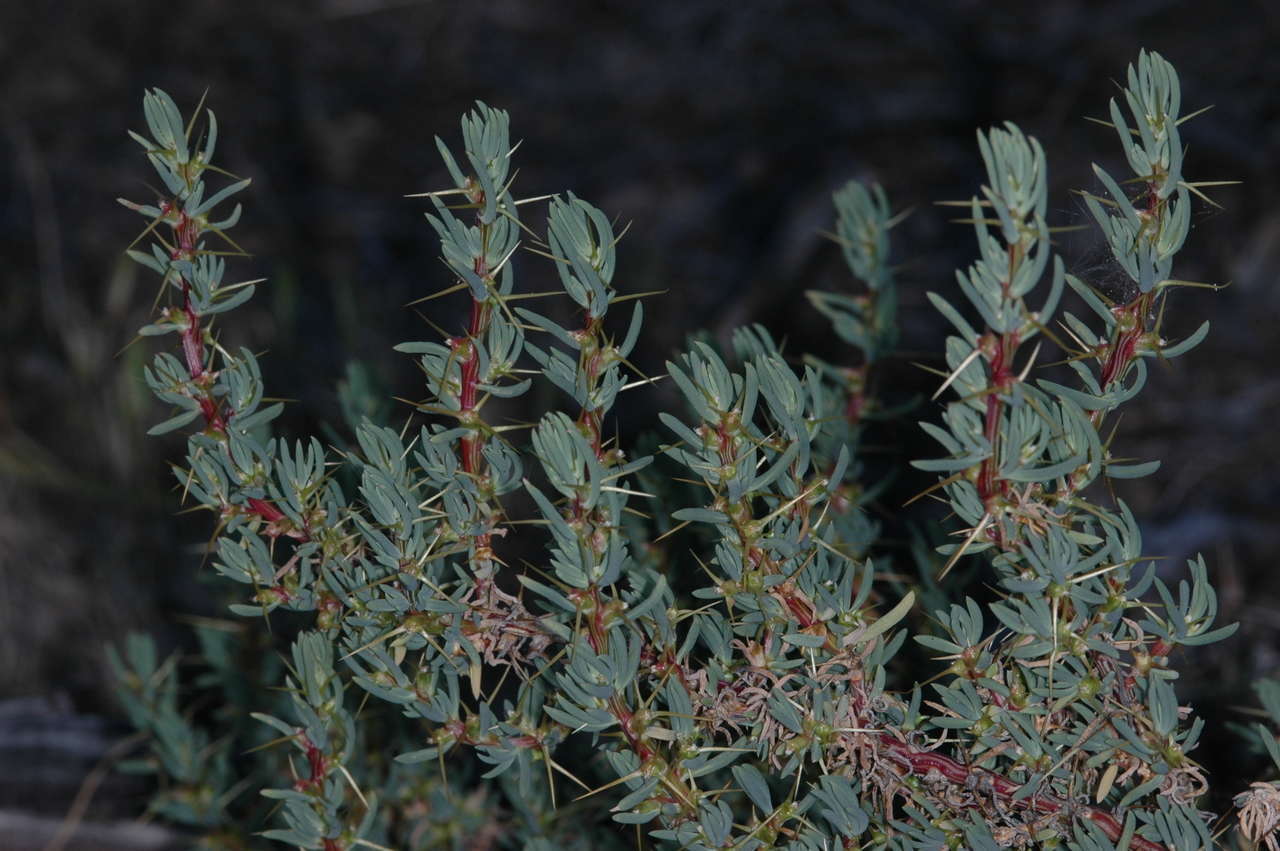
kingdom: Plantae
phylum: Tracheophyta
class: Magnoliopsida
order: Caryophyllales
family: Amaranthaceae
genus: Sclerolaena
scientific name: Sclerolaena tricuspis
